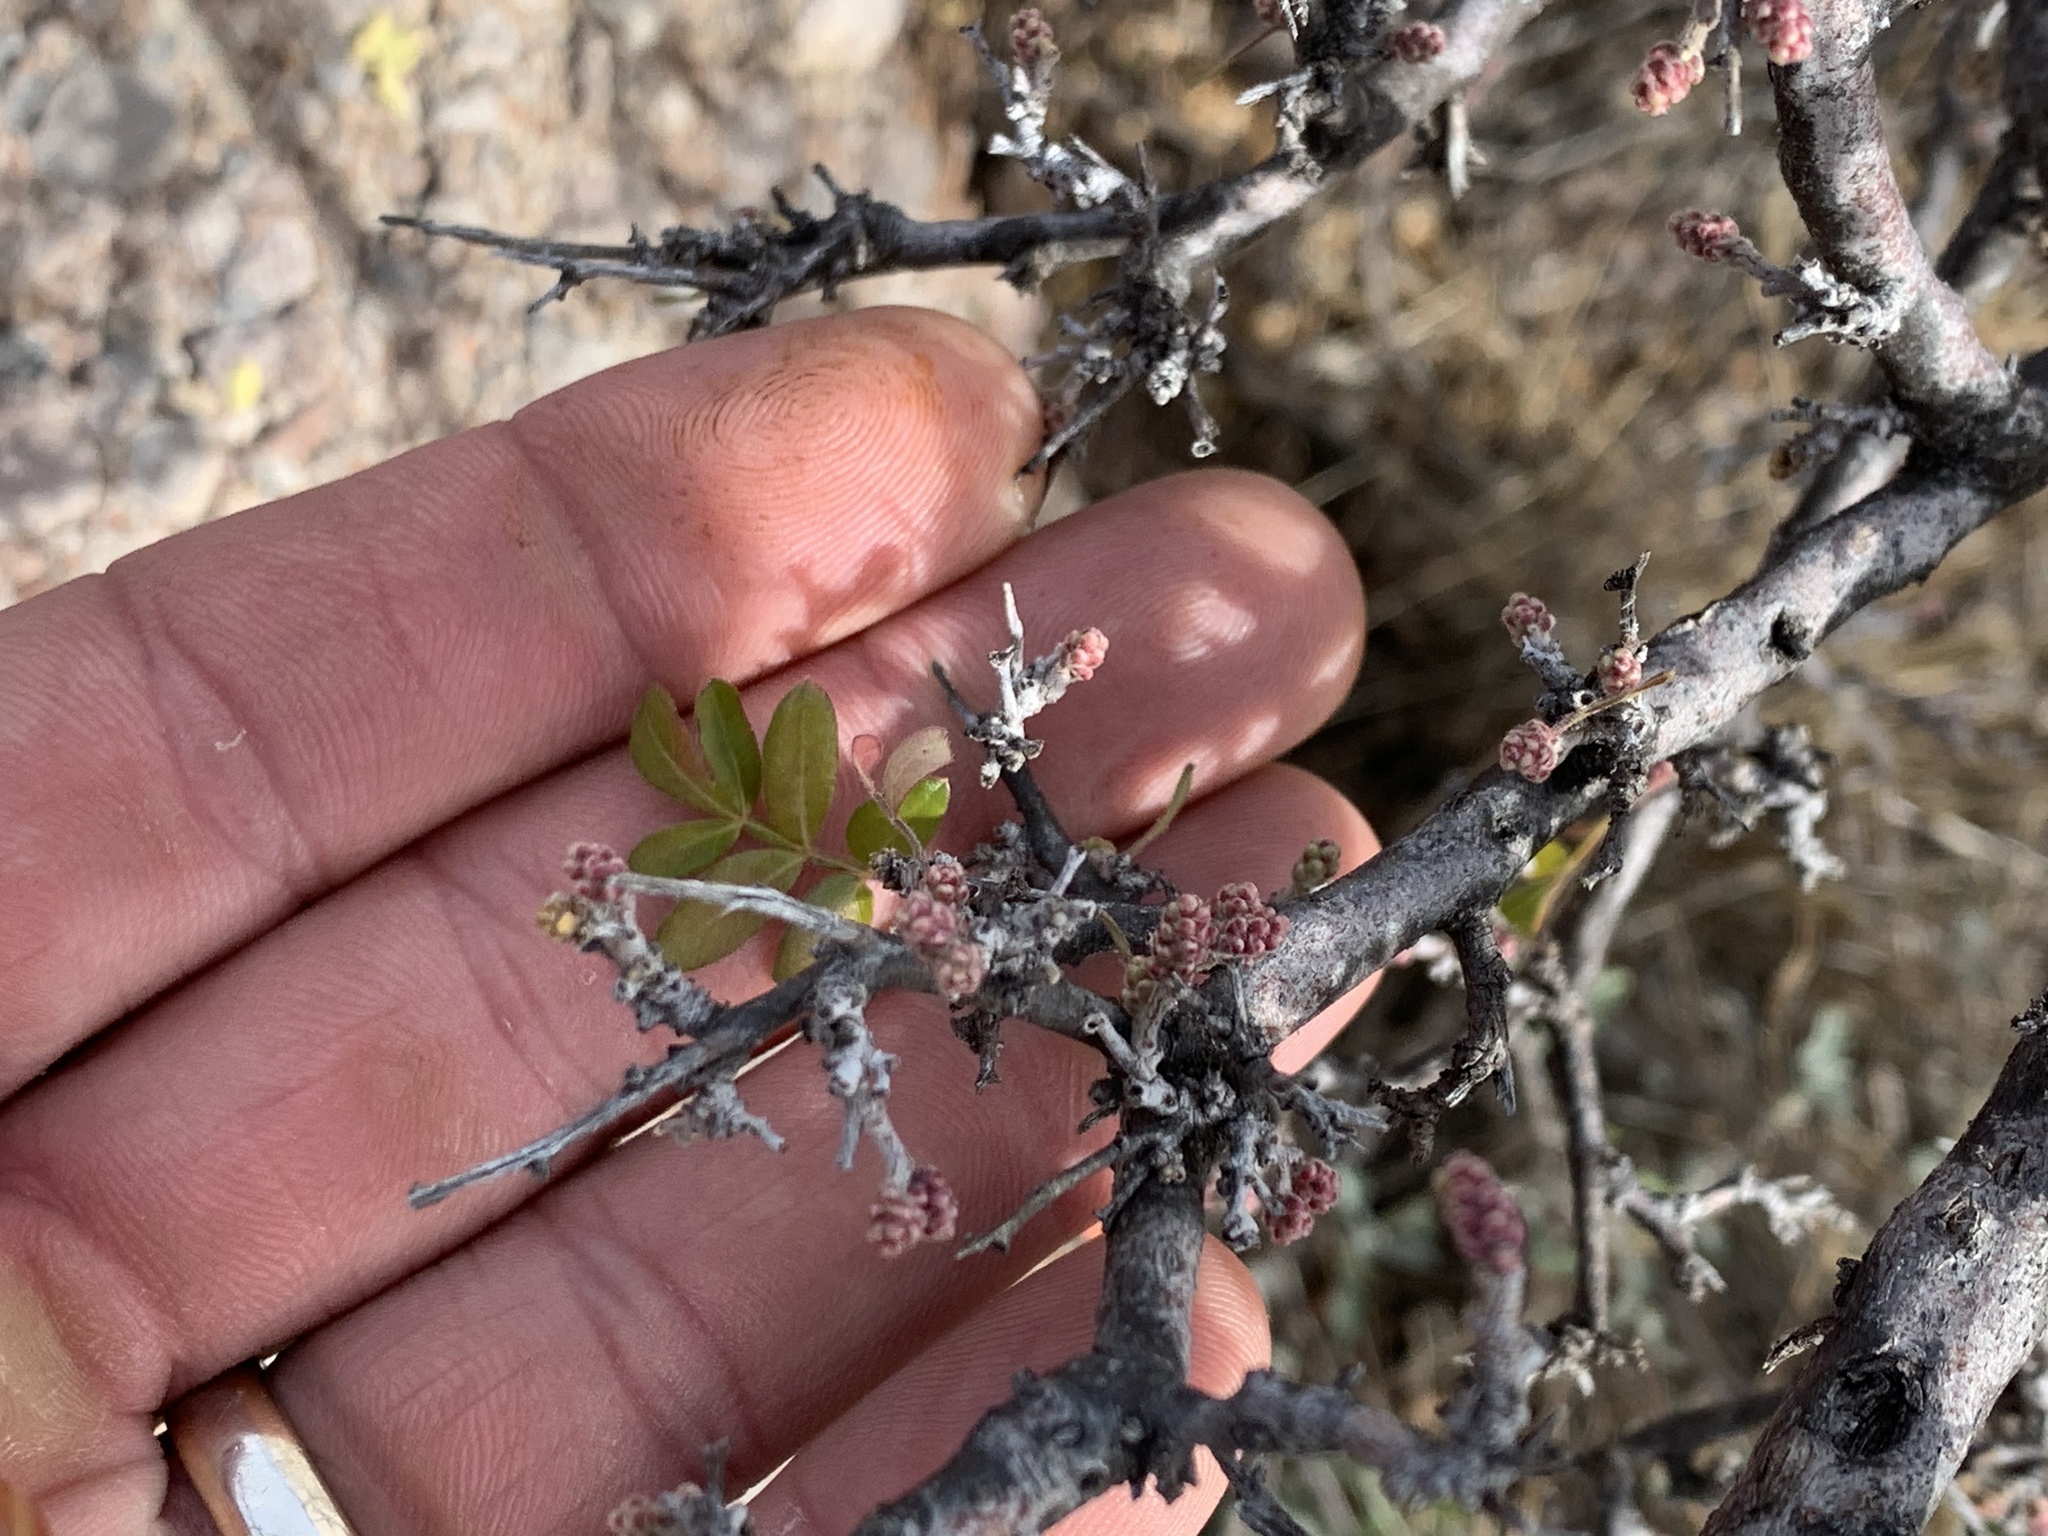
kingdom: Plantae
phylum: Tracheophyta
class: Magnoliopsida
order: Sapindales
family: Anacardiaceae
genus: Rhus
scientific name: Rhus microphylla
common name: Desert sumac
